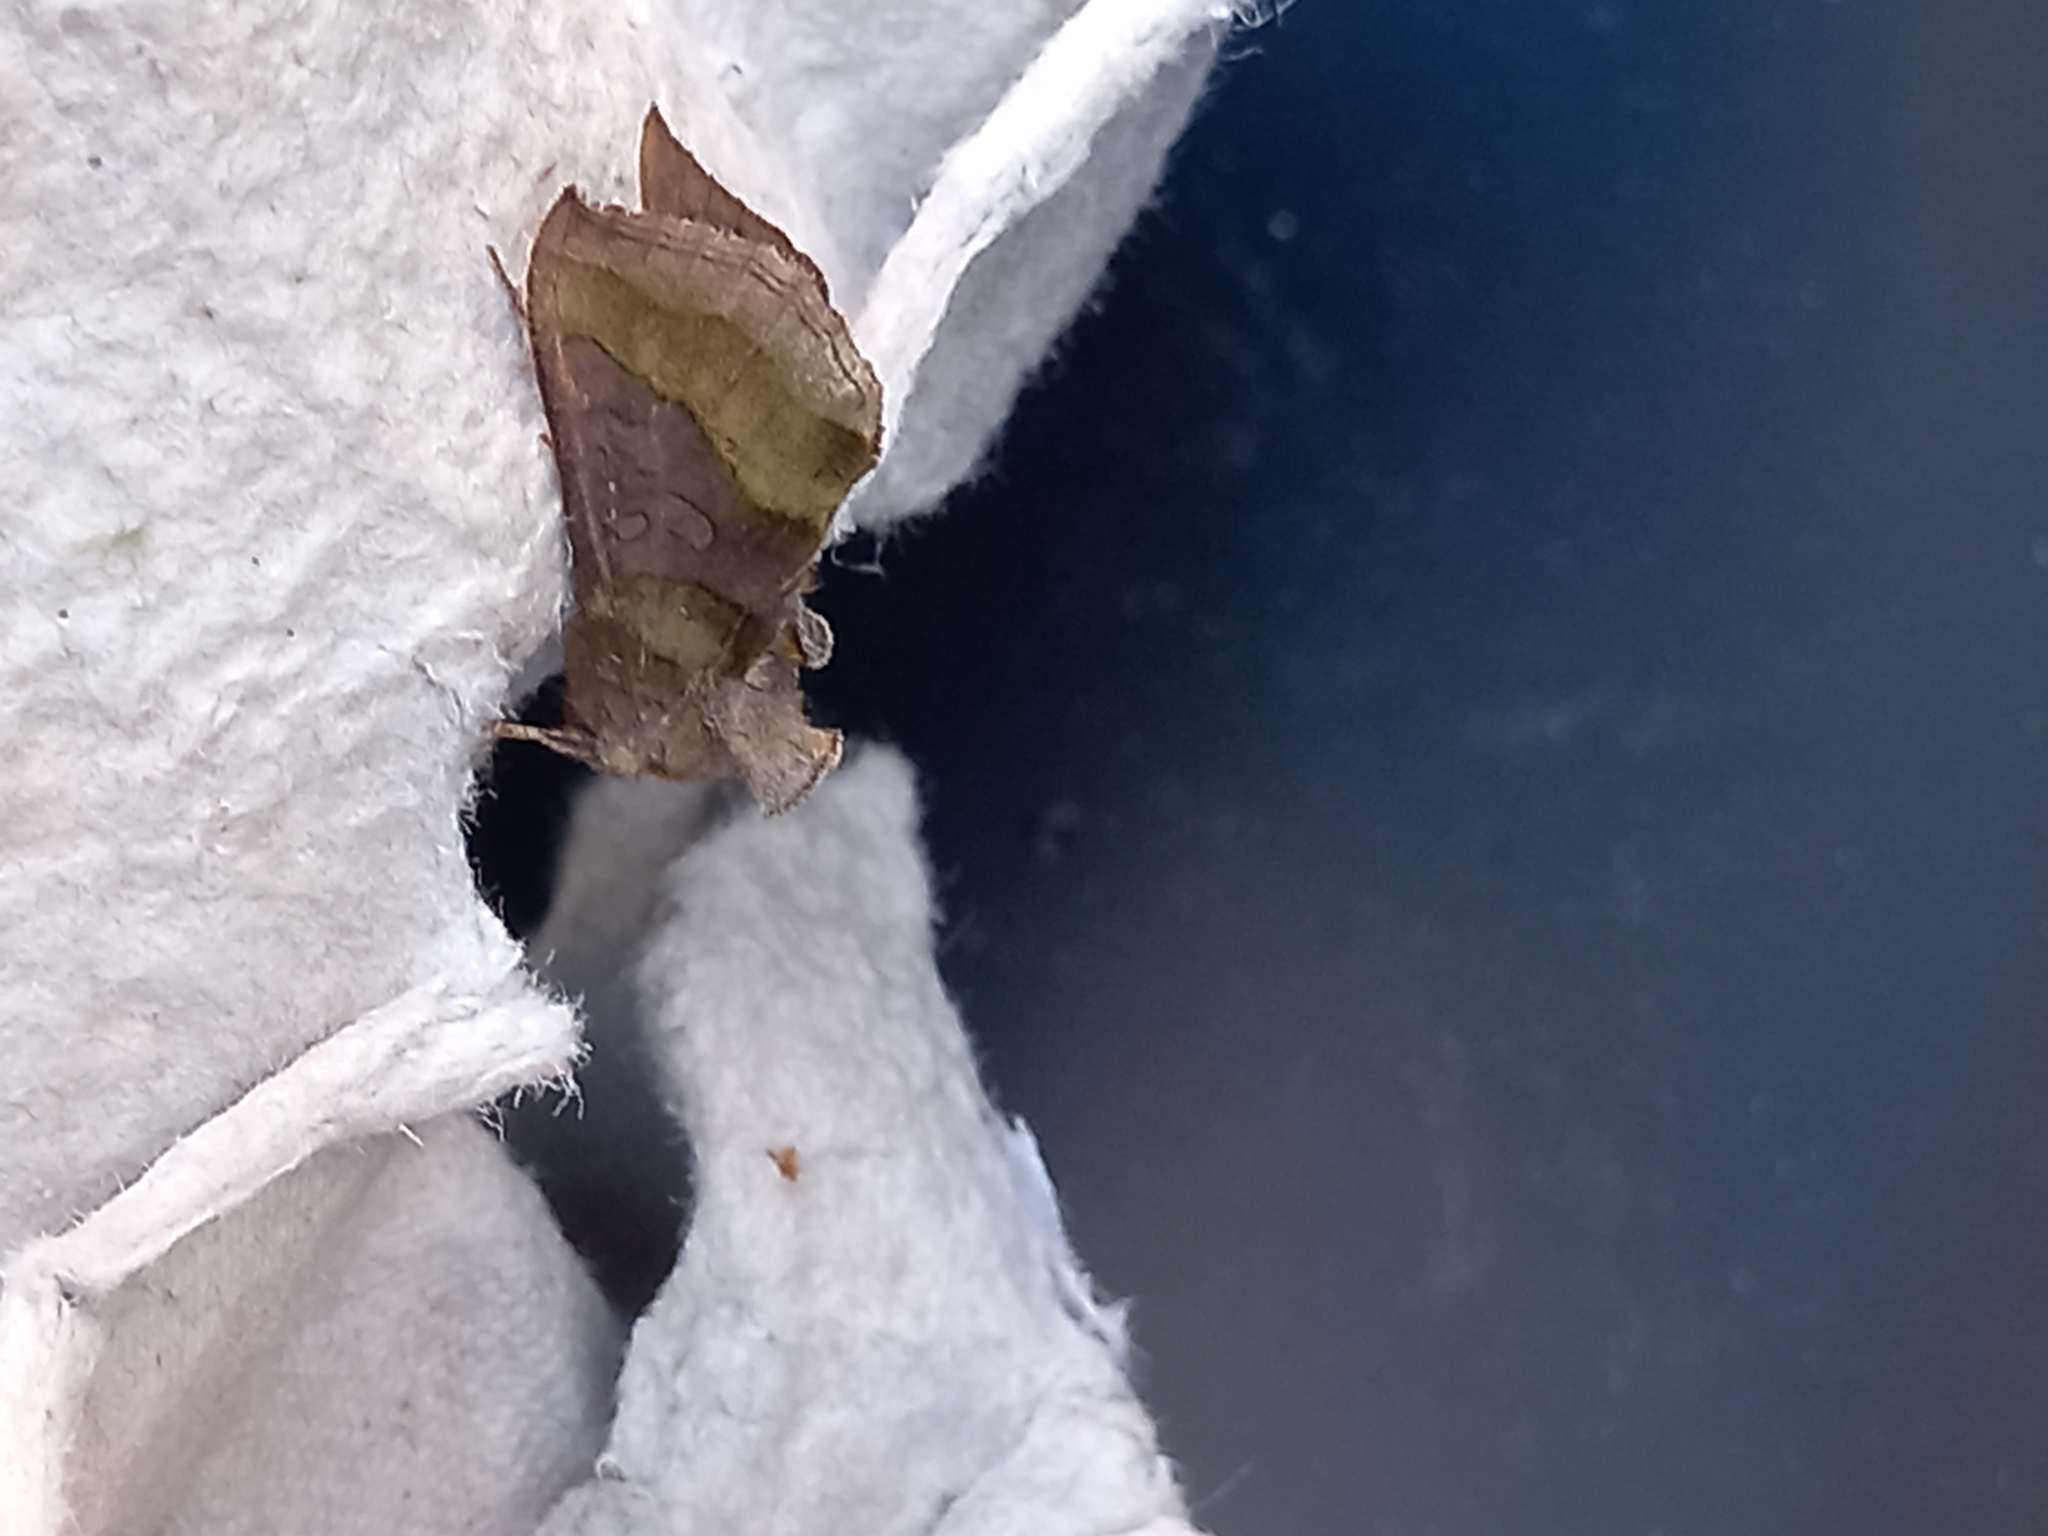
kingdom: Animalia
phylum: Arthropoda
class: Insecta
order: Lepidoptera
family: Noctuidae
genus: Diachrysia
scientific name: Diachrysia chrysitis
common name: Burnished brass
